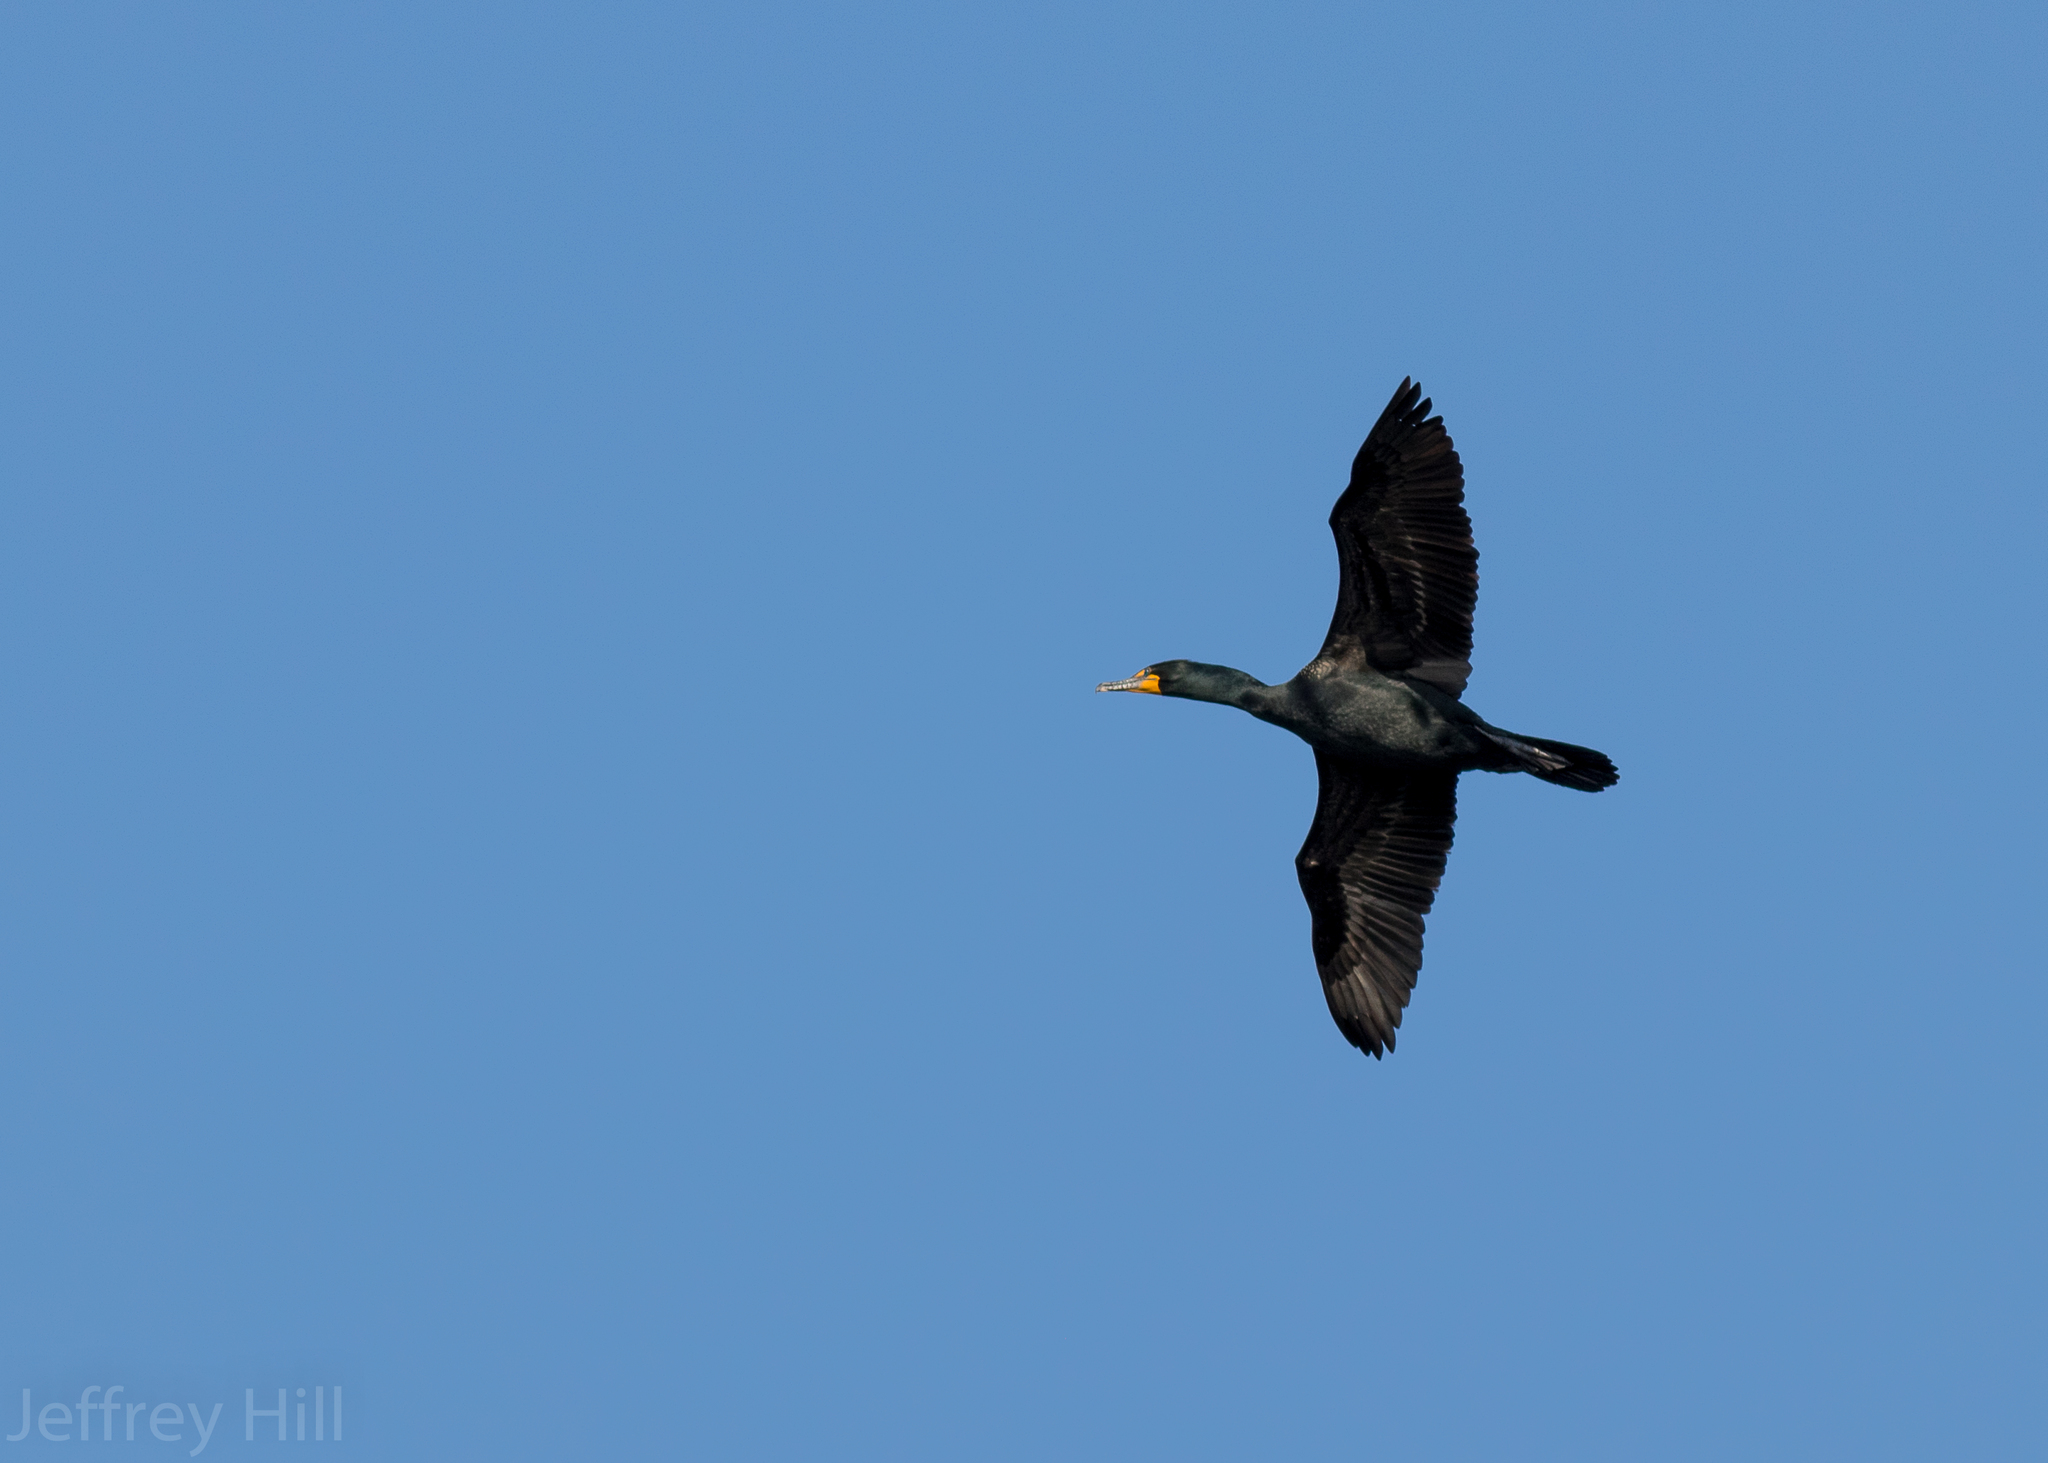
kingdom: Animalia
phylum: Chordata
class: Aves
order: Suliformes
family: Phalacrocoracidae
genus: Phalacrocorax
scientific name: Phalacrocorax auritus
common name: Double-crested cormorant
